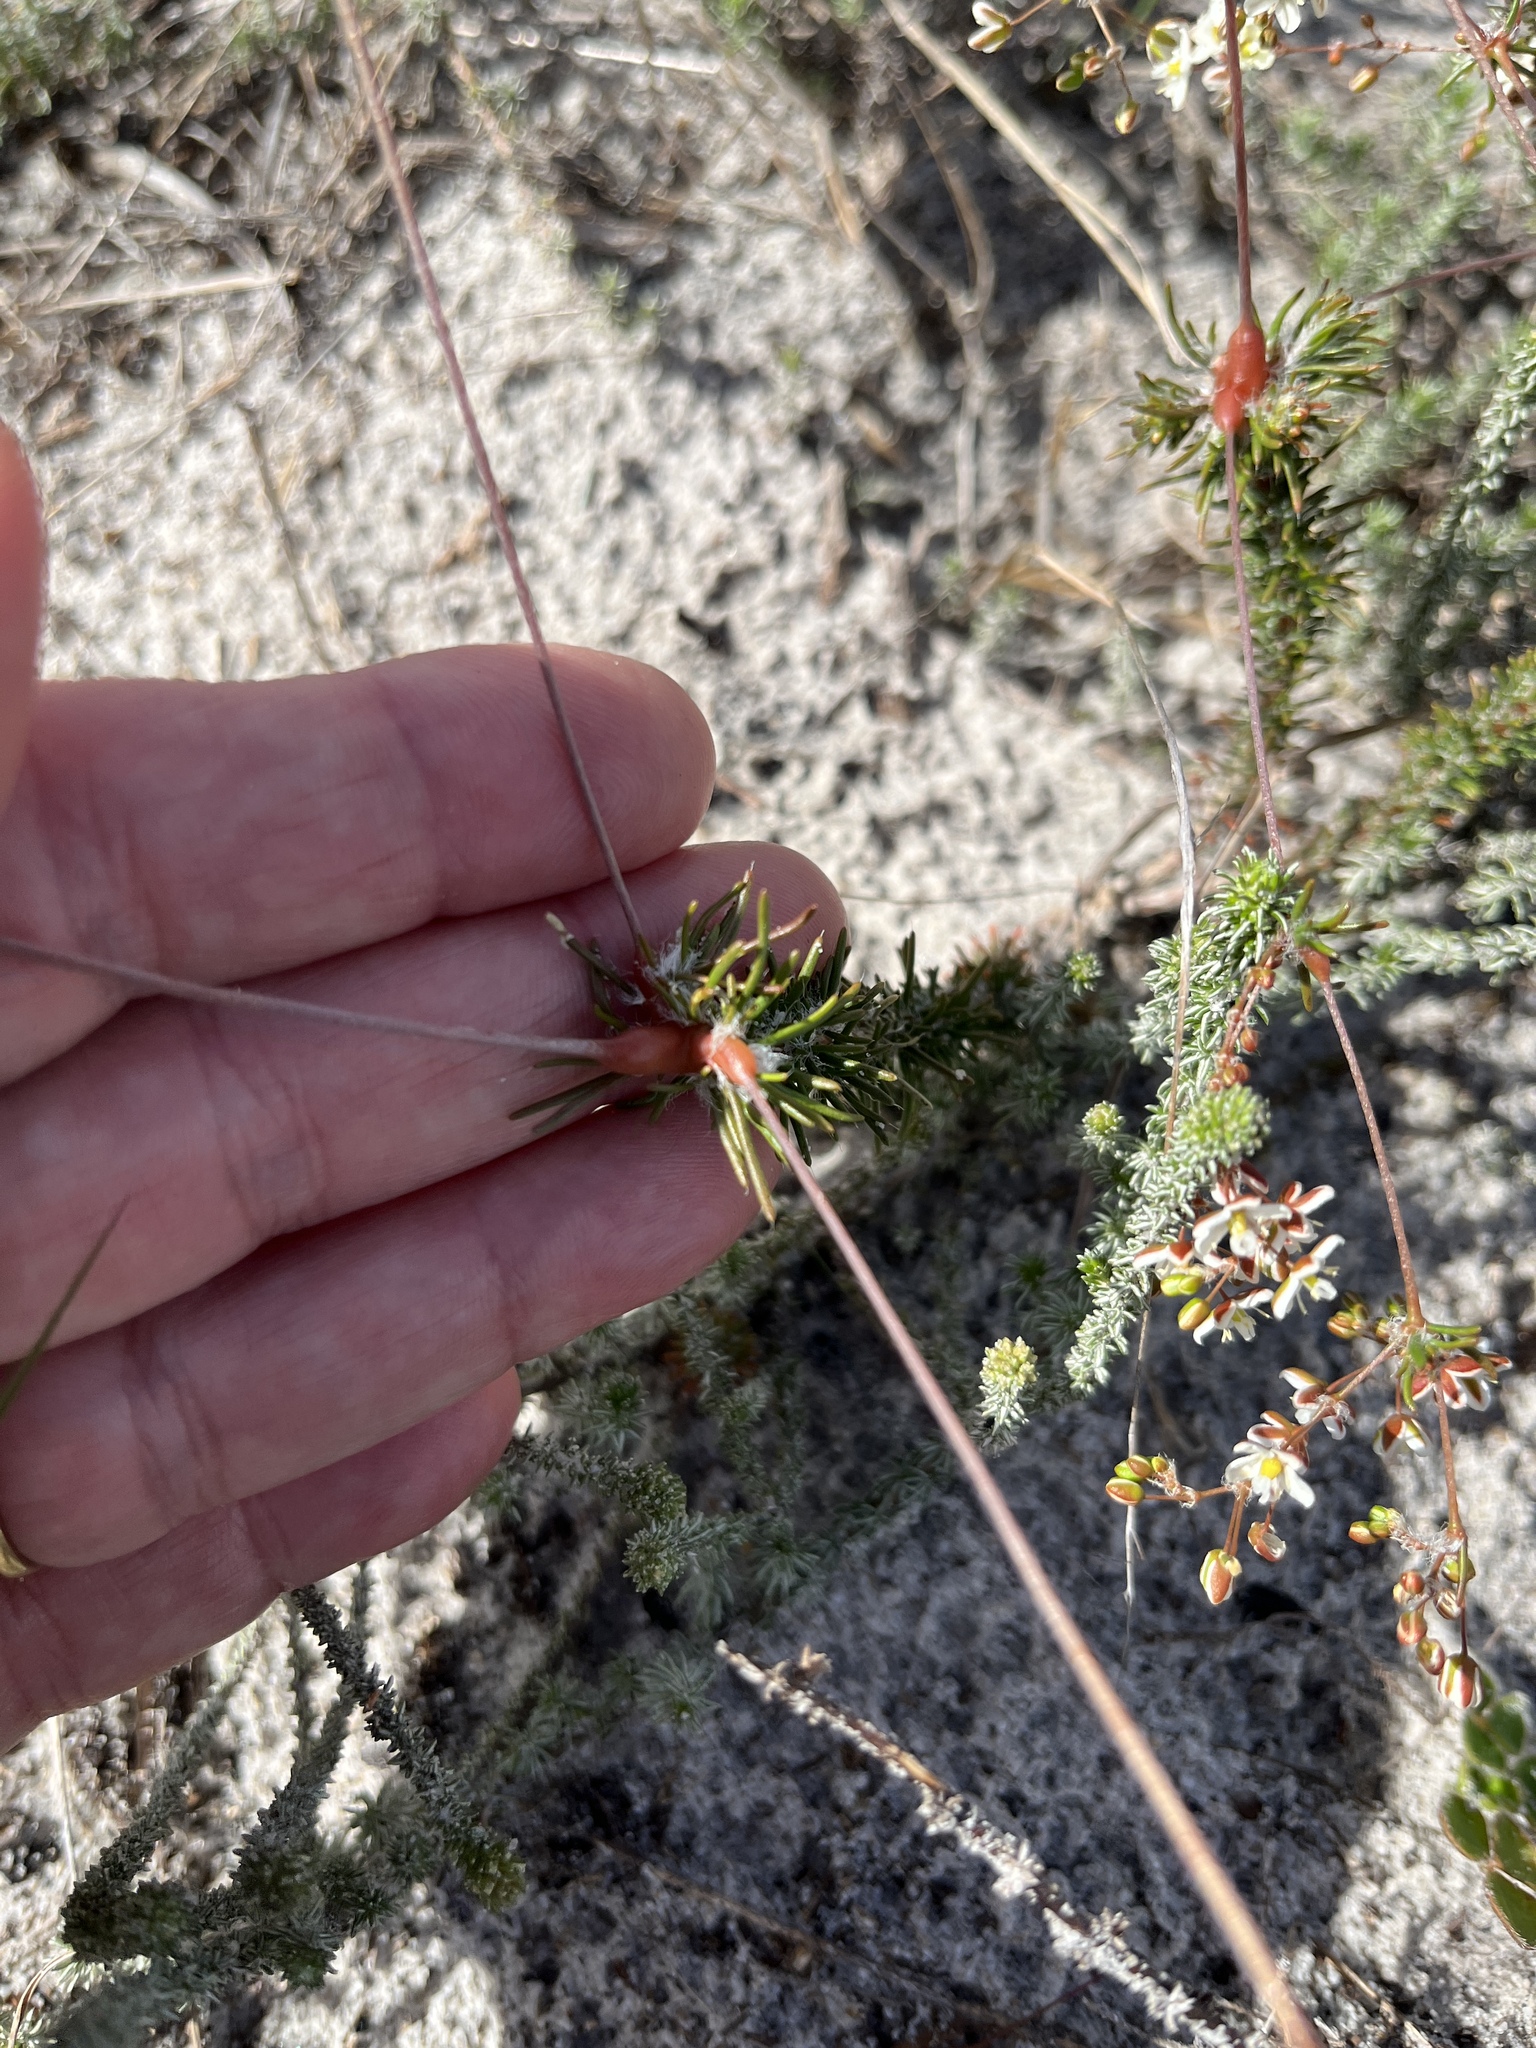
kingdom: Plantae
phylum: Tracheophyta
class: Magnoliopsida
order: Caryophyllales
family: Molluginaceae
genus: Pharnaceum
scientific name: Pharnaceum elongatum
